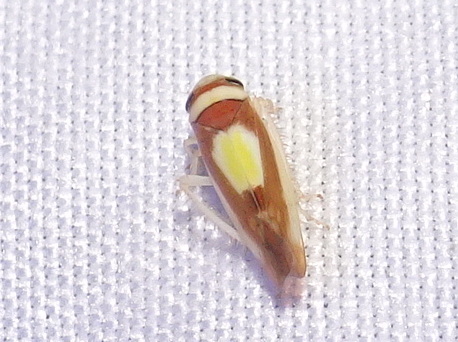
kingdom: Animalia
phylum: Arthropoda
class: Insecta
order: Hemiptera
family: Cicadellidae
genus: Colladonus
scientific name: Colladonus clitellarius
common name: The saddleback leafhopper
